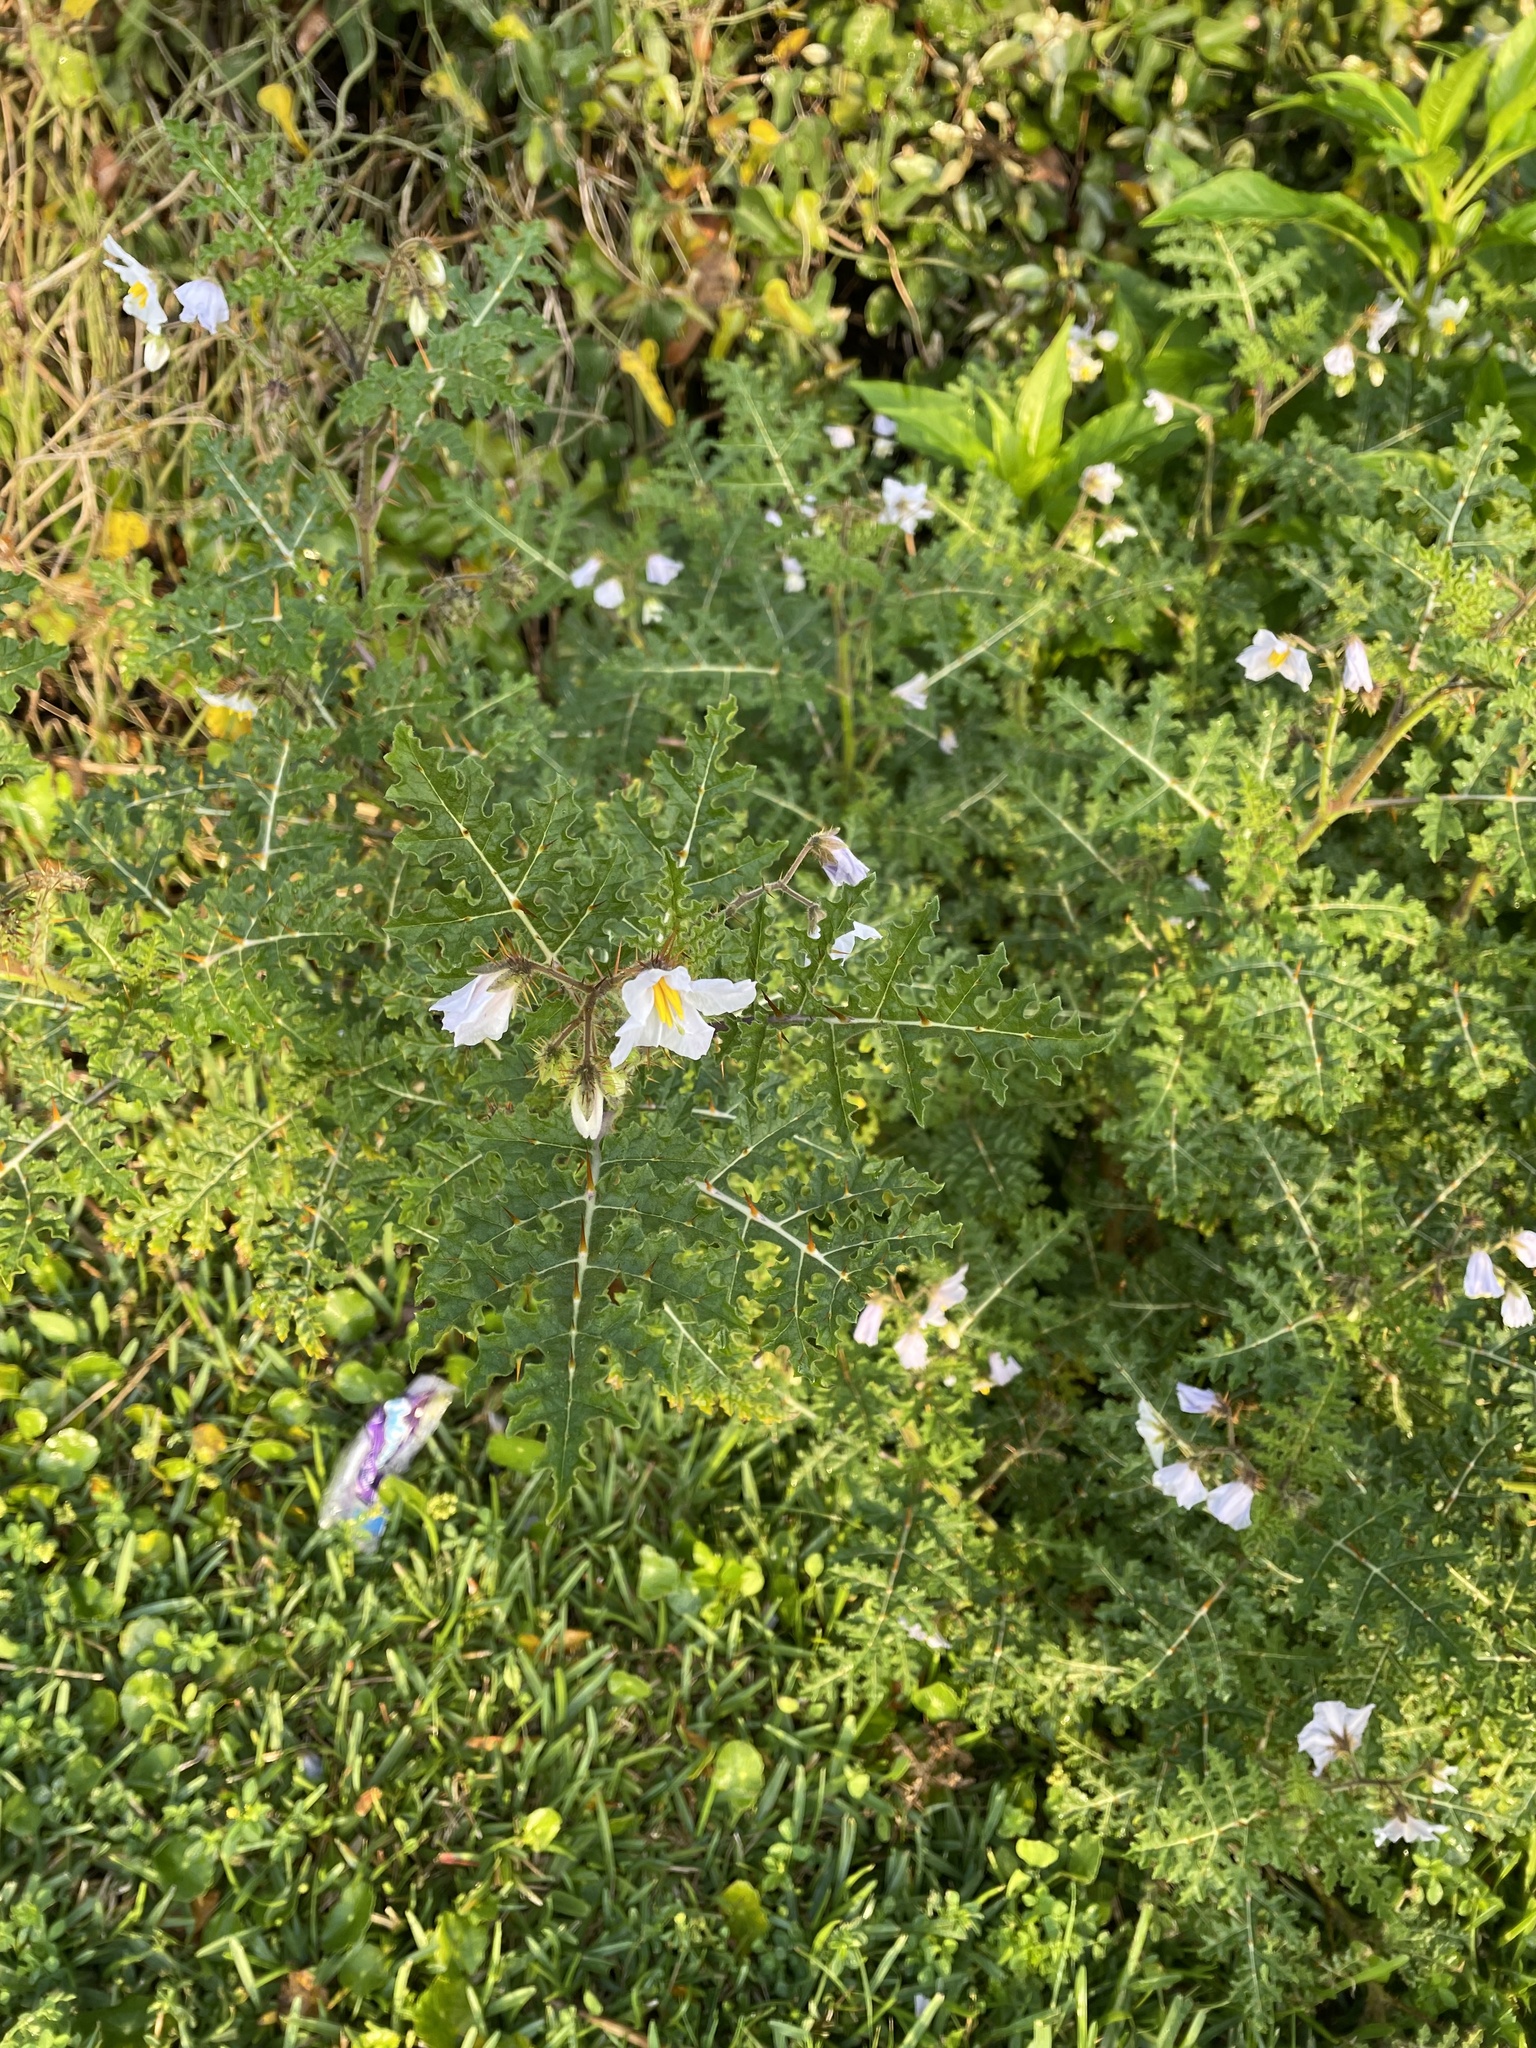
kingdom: Plantae
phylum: Tracheophyta
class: Magnoliopsida
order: Solanales
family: Solanaceae
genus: Solanum
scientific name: Solanum sisymbriifolium
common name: Red buffalo-bur
